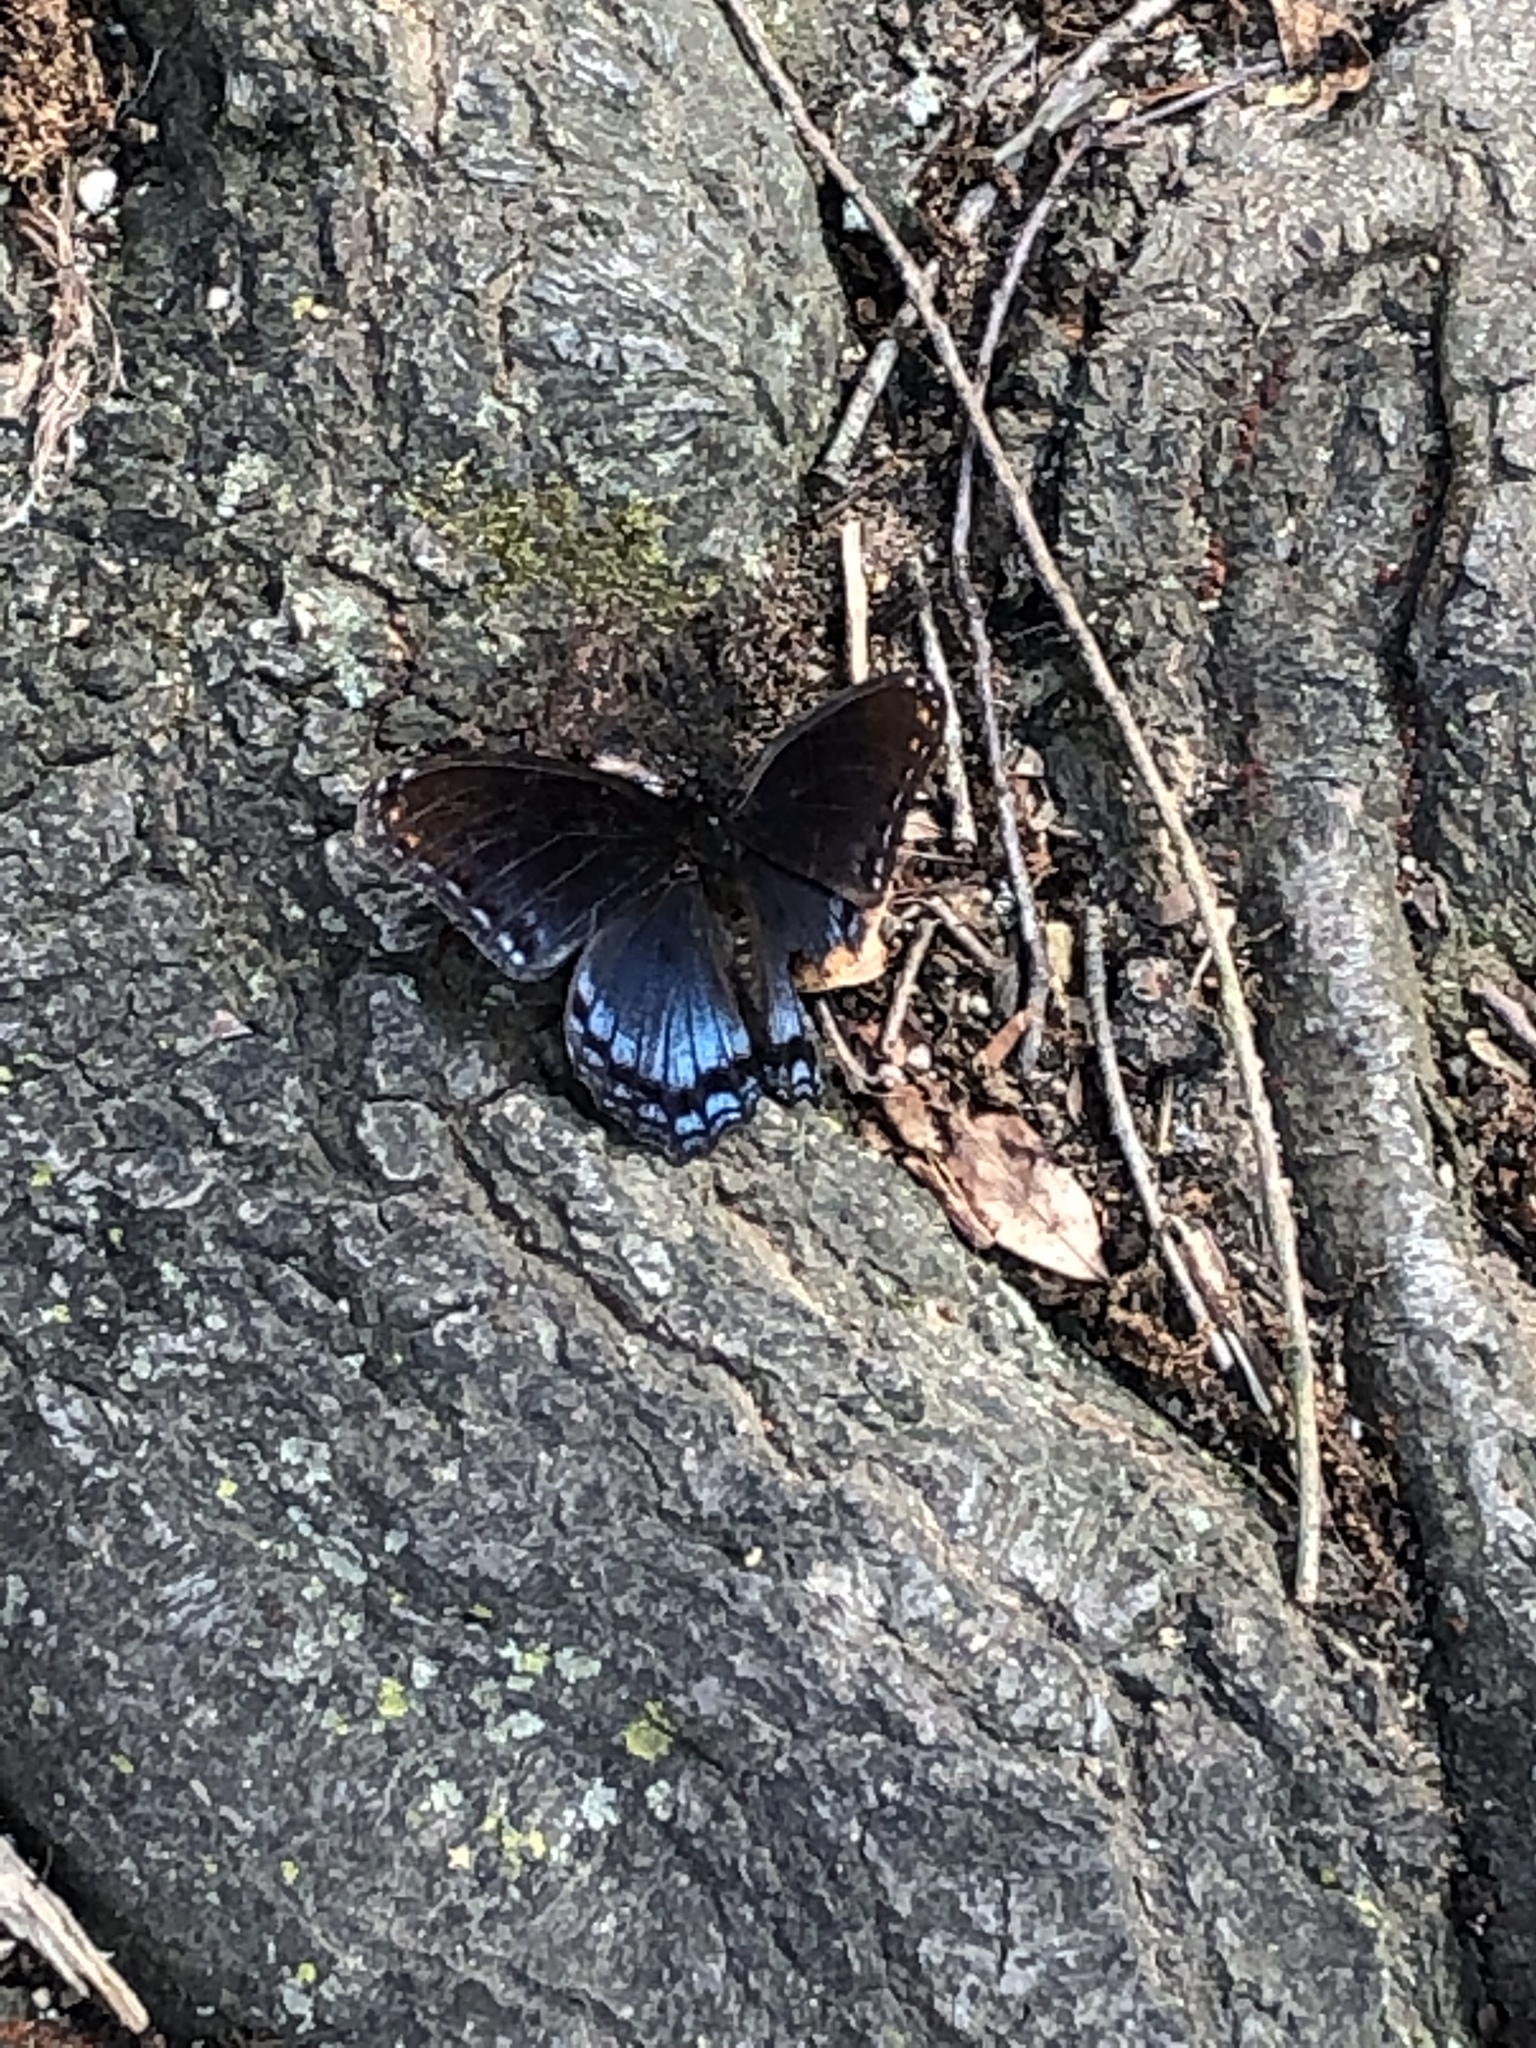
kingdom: Animalia
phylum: Arthropoda
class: Insecta
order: Lepidoptera
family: Nymphalidae
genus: Limenitis
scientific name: Limenitis astyanax
